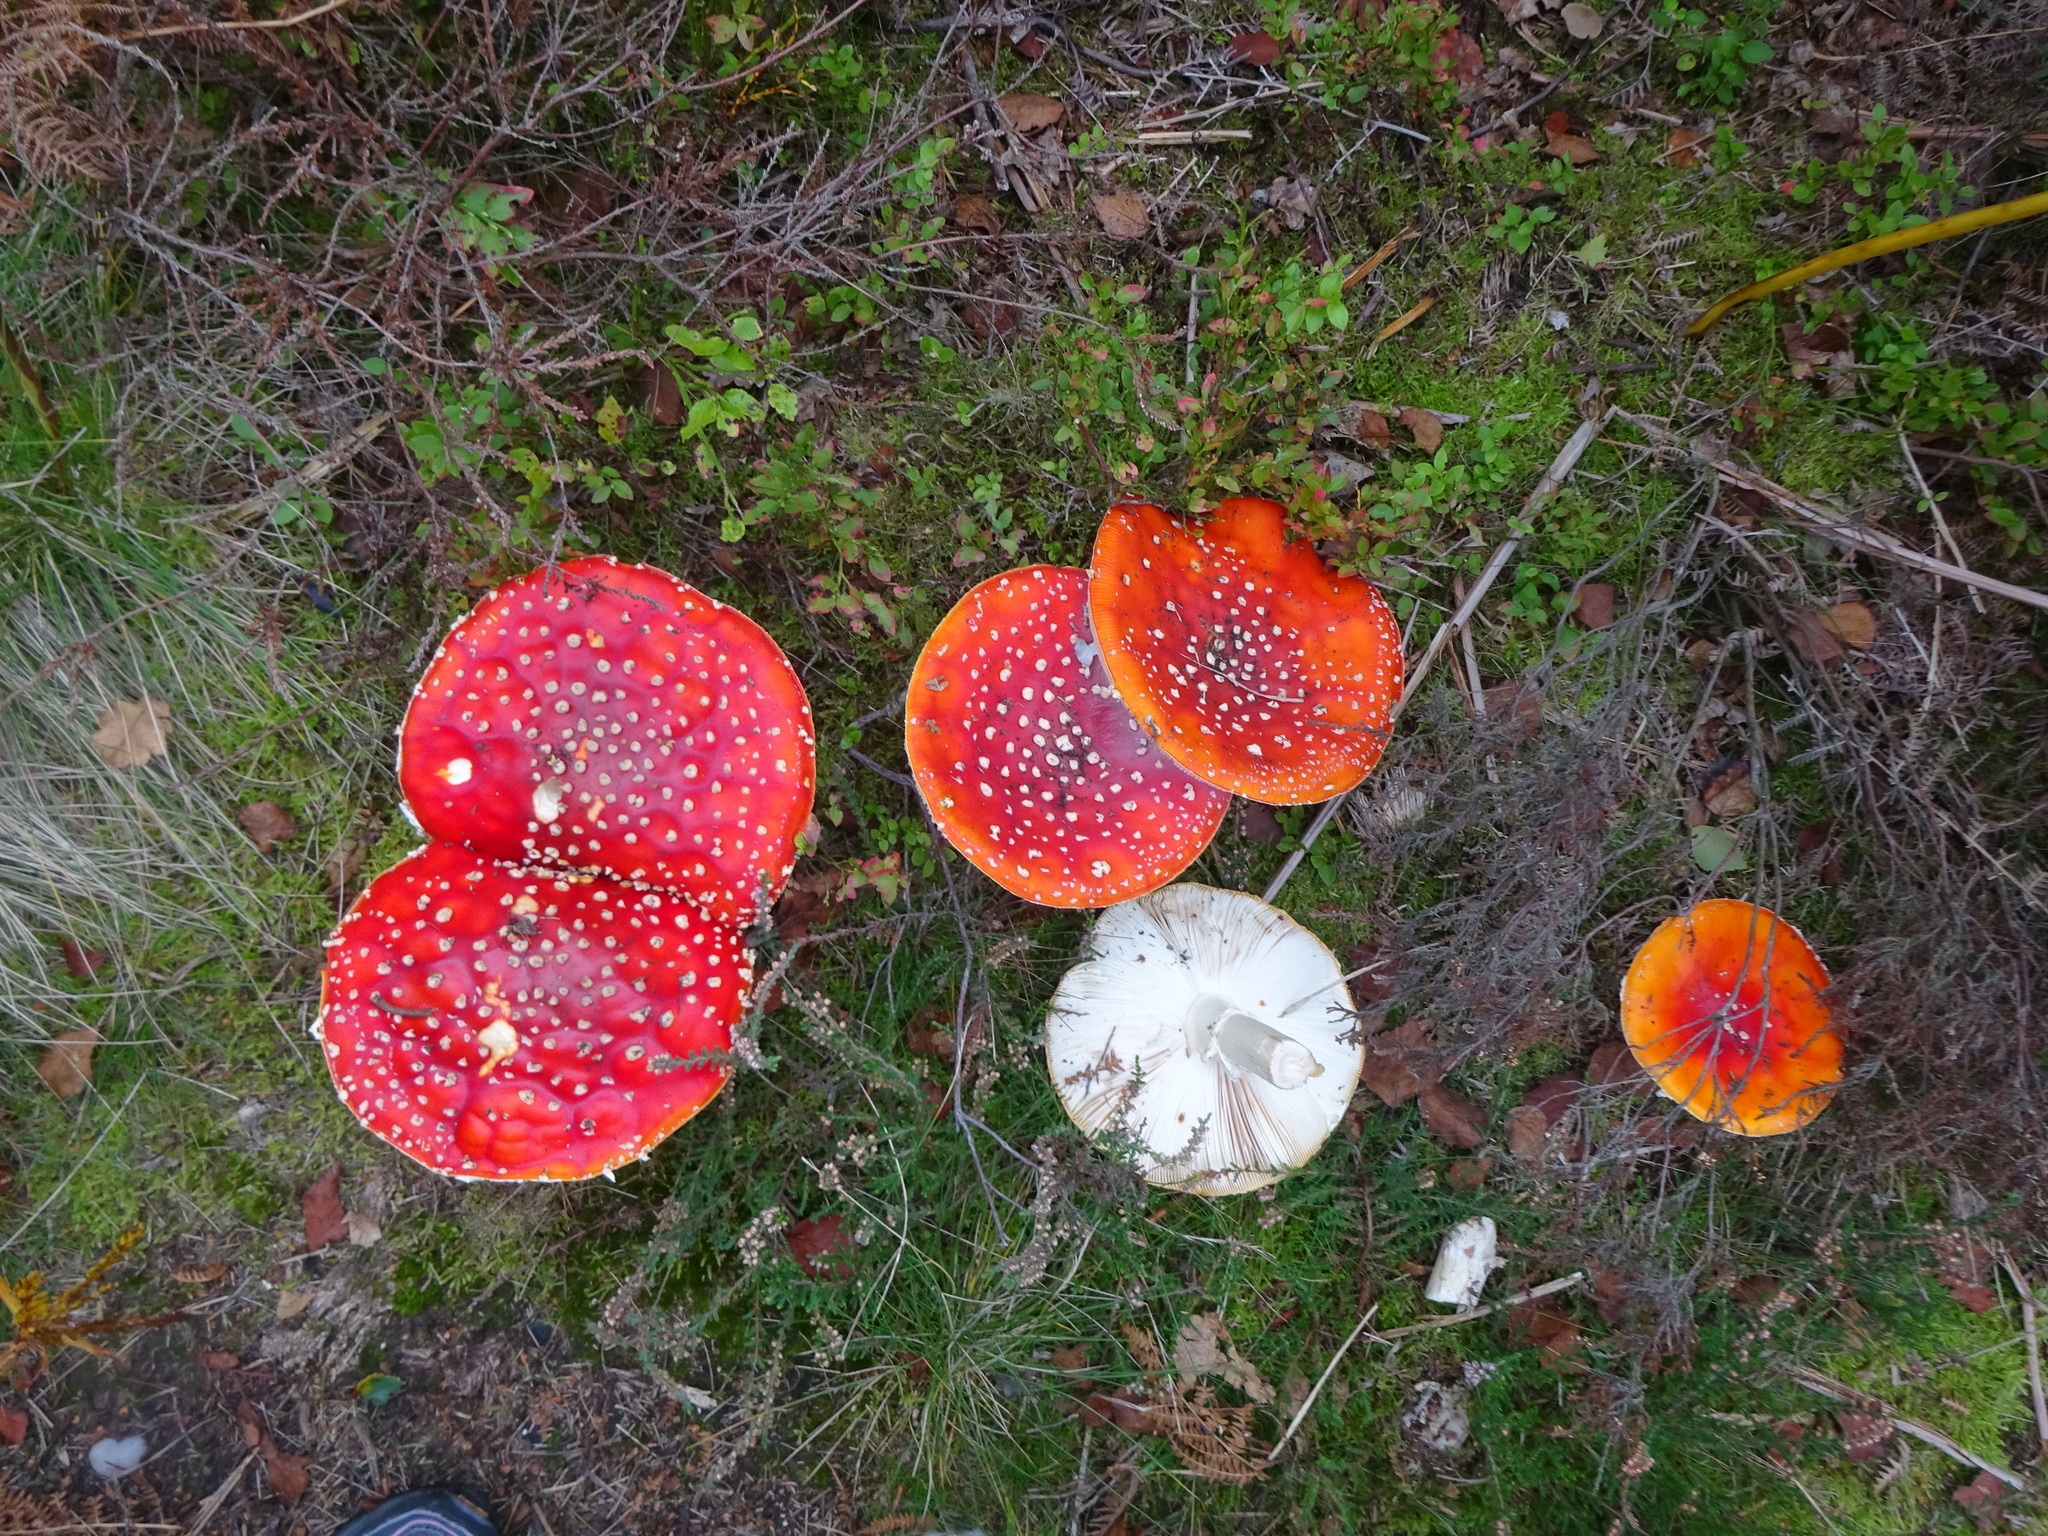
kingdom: Fungi
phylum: Basidiomycota
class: Agaricomycetes
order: Agaricales
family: Amanitaceae
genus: Amanita
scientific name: Amanita muscaria
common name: Fly agaric
